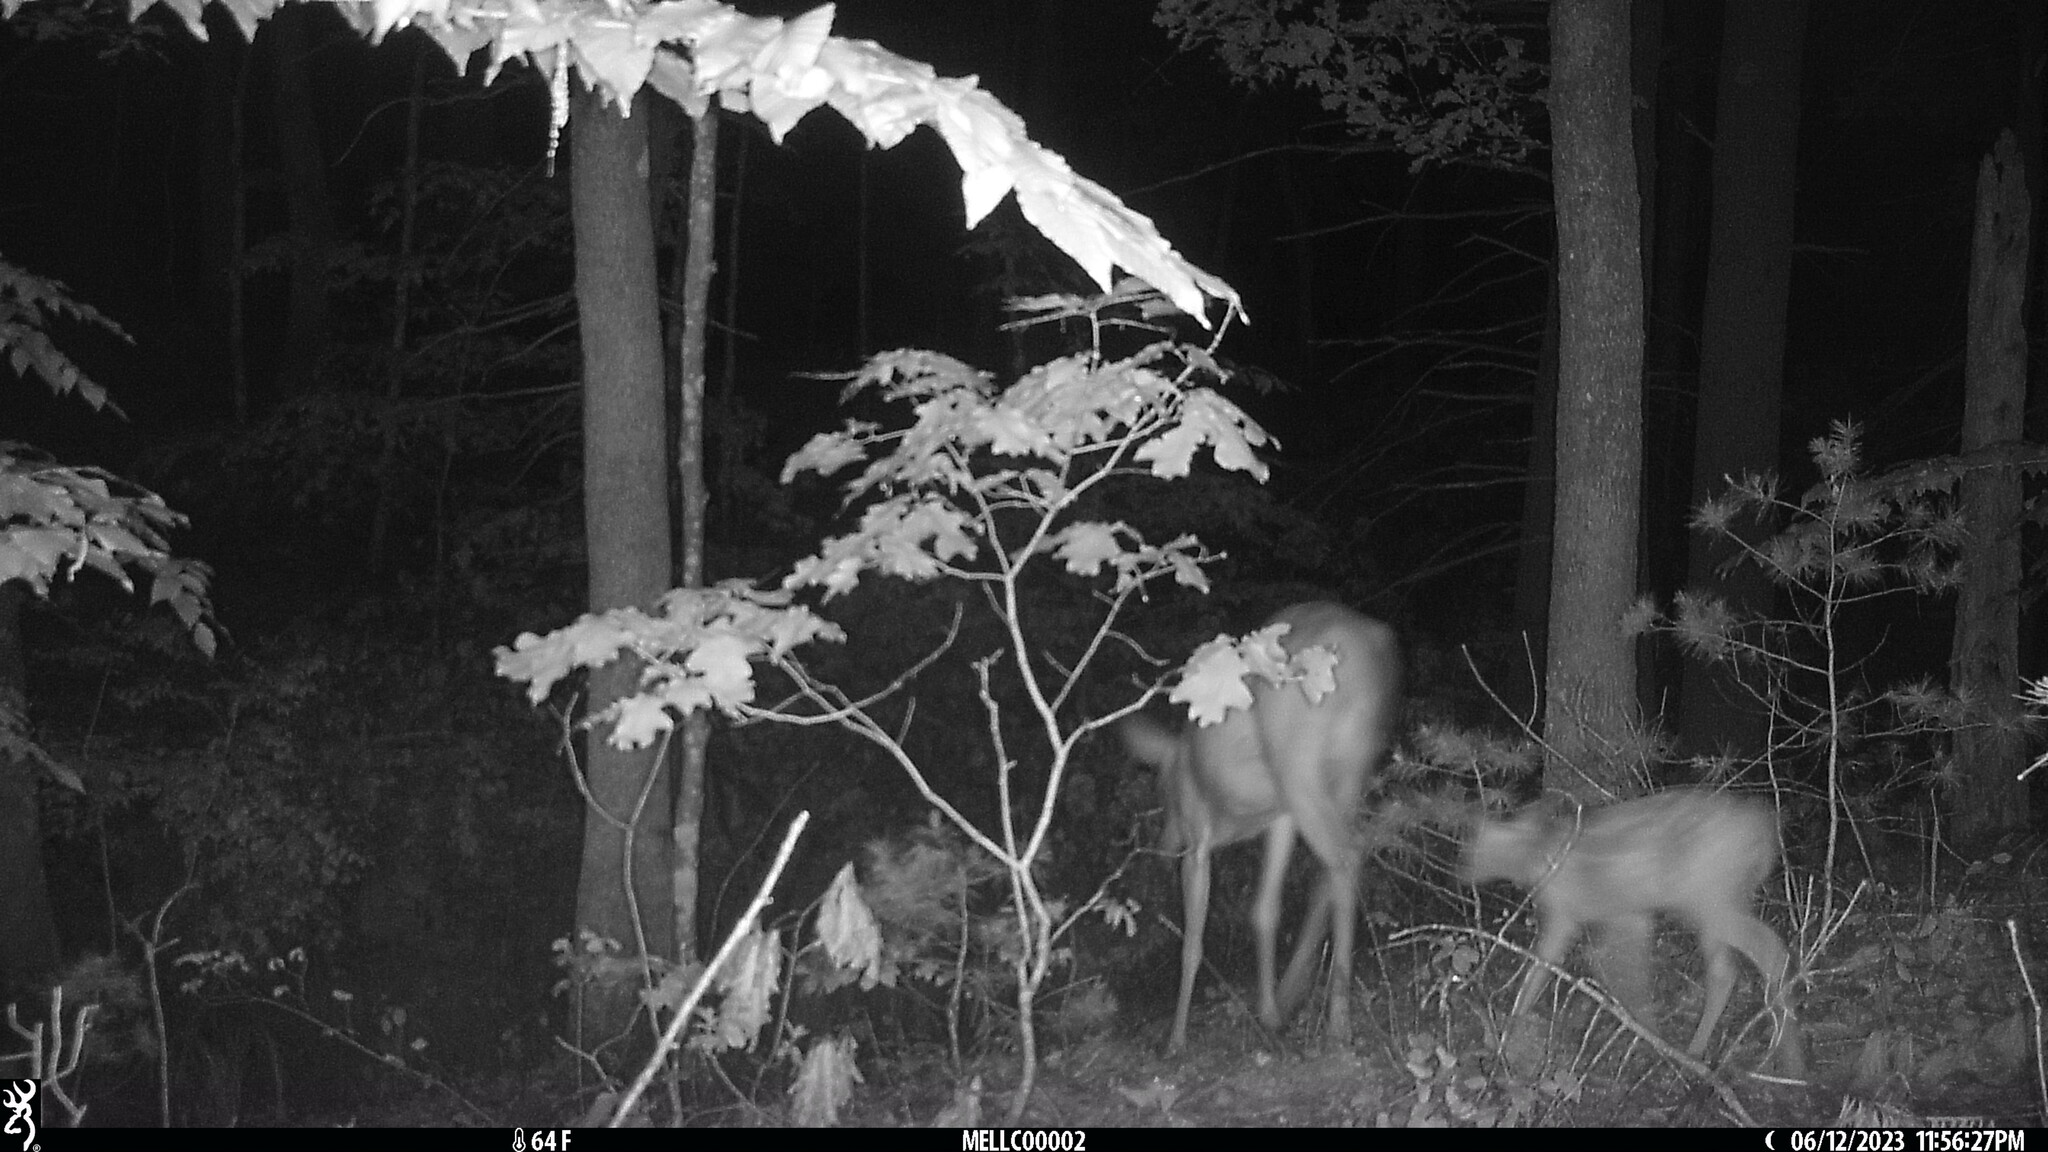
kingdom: Animalia
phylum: Chordata
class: Mammalia
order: Artiodactyla
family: Cervidae
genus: Odocoileus
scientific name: Odocoileus virginianus
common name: White-tailed deer
